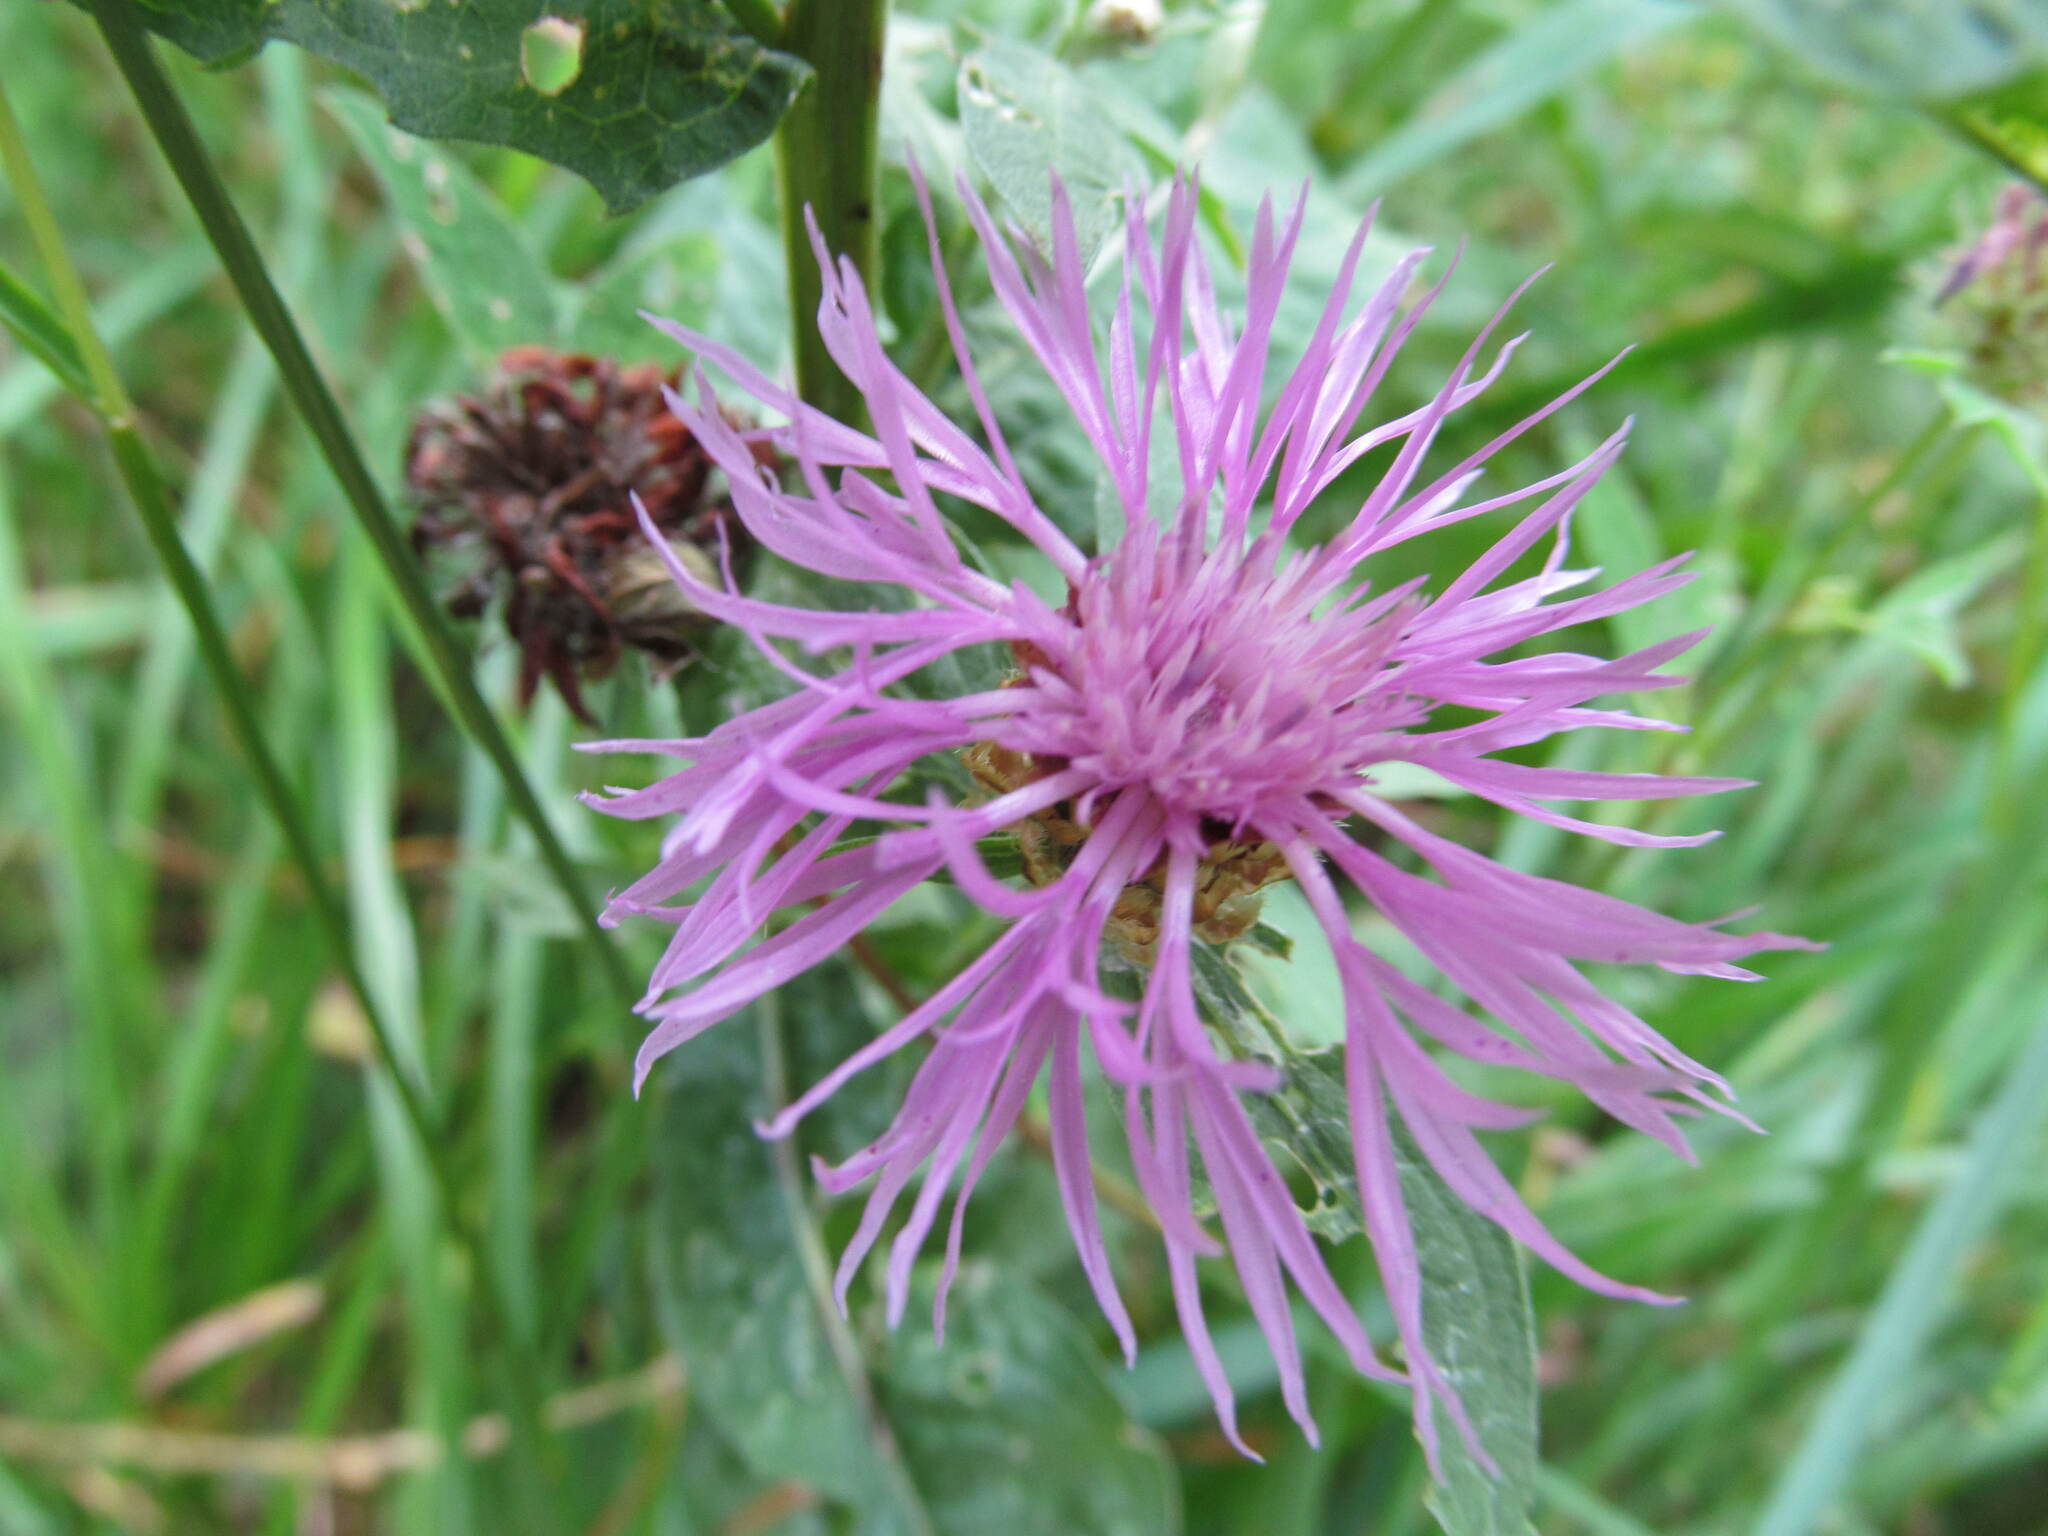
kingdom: Plantae
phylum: Tracheophyta
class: Magnoliopsida
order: Asterales
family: Asteraceae
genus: Centaurea
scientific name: Centaurea jacea
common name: Brown knapweed
